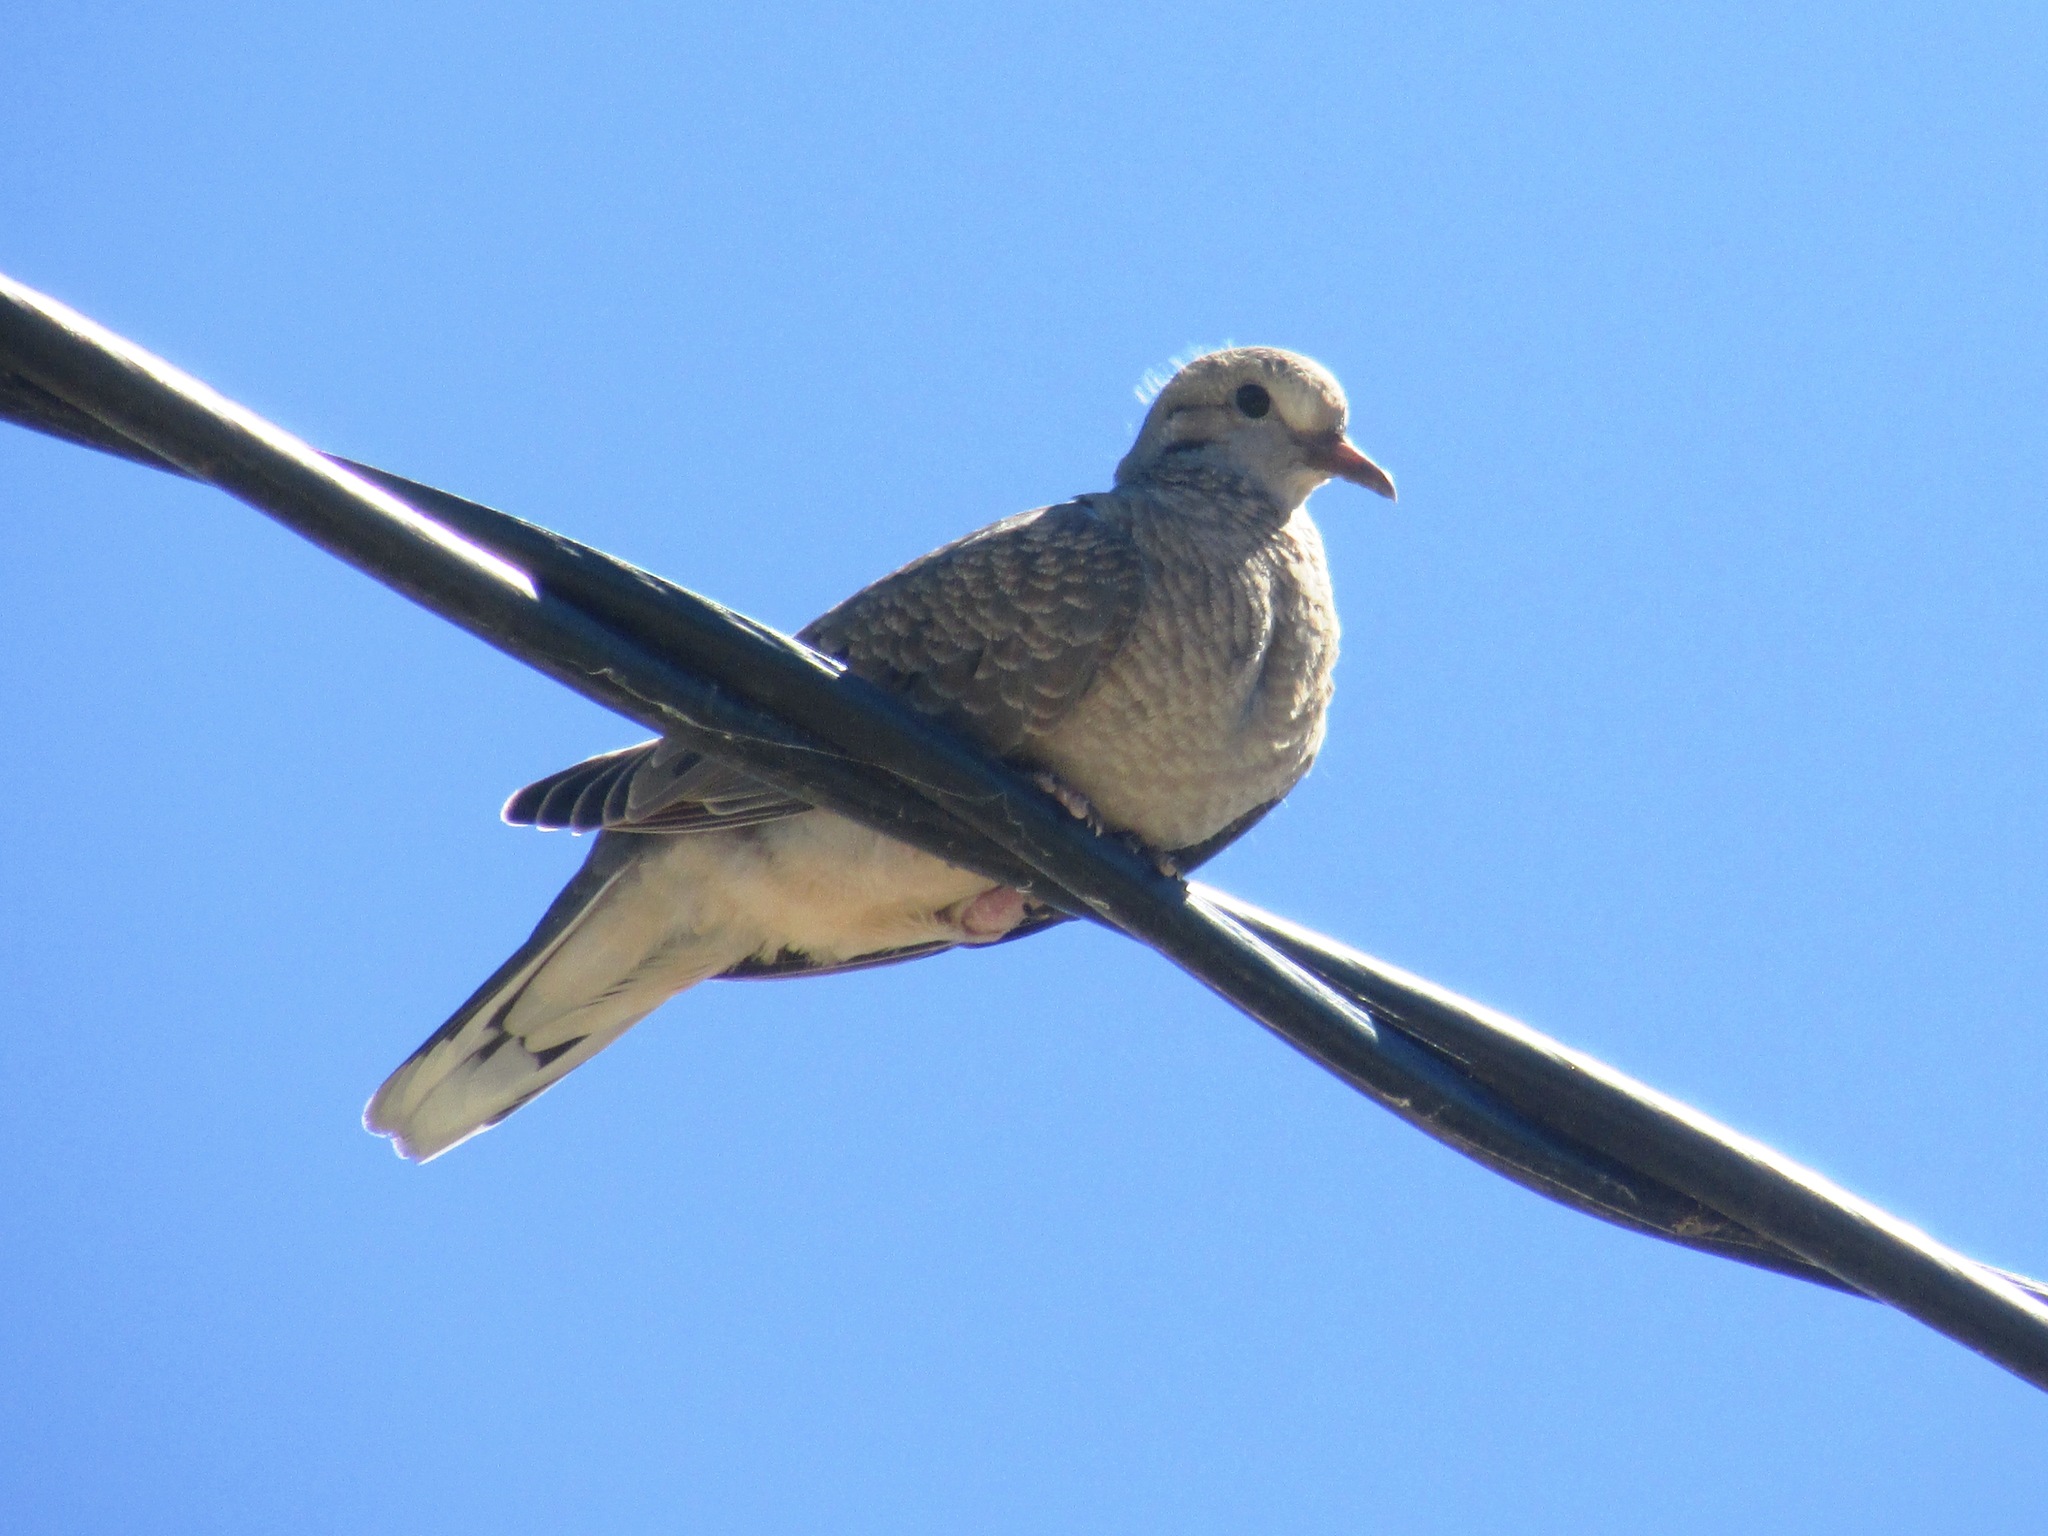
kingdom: Animalia
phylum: Chordata
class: Aves
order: Columbiformes
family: Columbidae
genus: Zenaida
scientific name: Zenaida auriculata
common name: Eared dove
